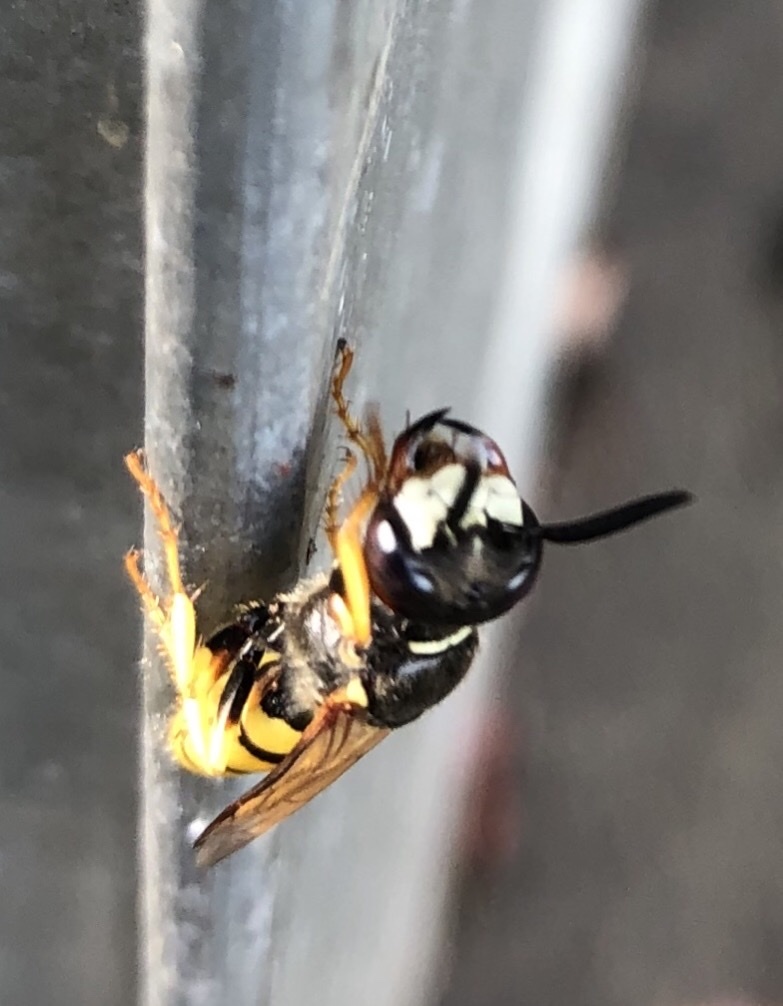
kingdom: Animalia
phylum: Arthropoda
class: Insecta
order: Hymenoptera
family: Crabronidae
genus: Philanthus
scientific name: Philanthus triangulum
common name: Bee wolf
